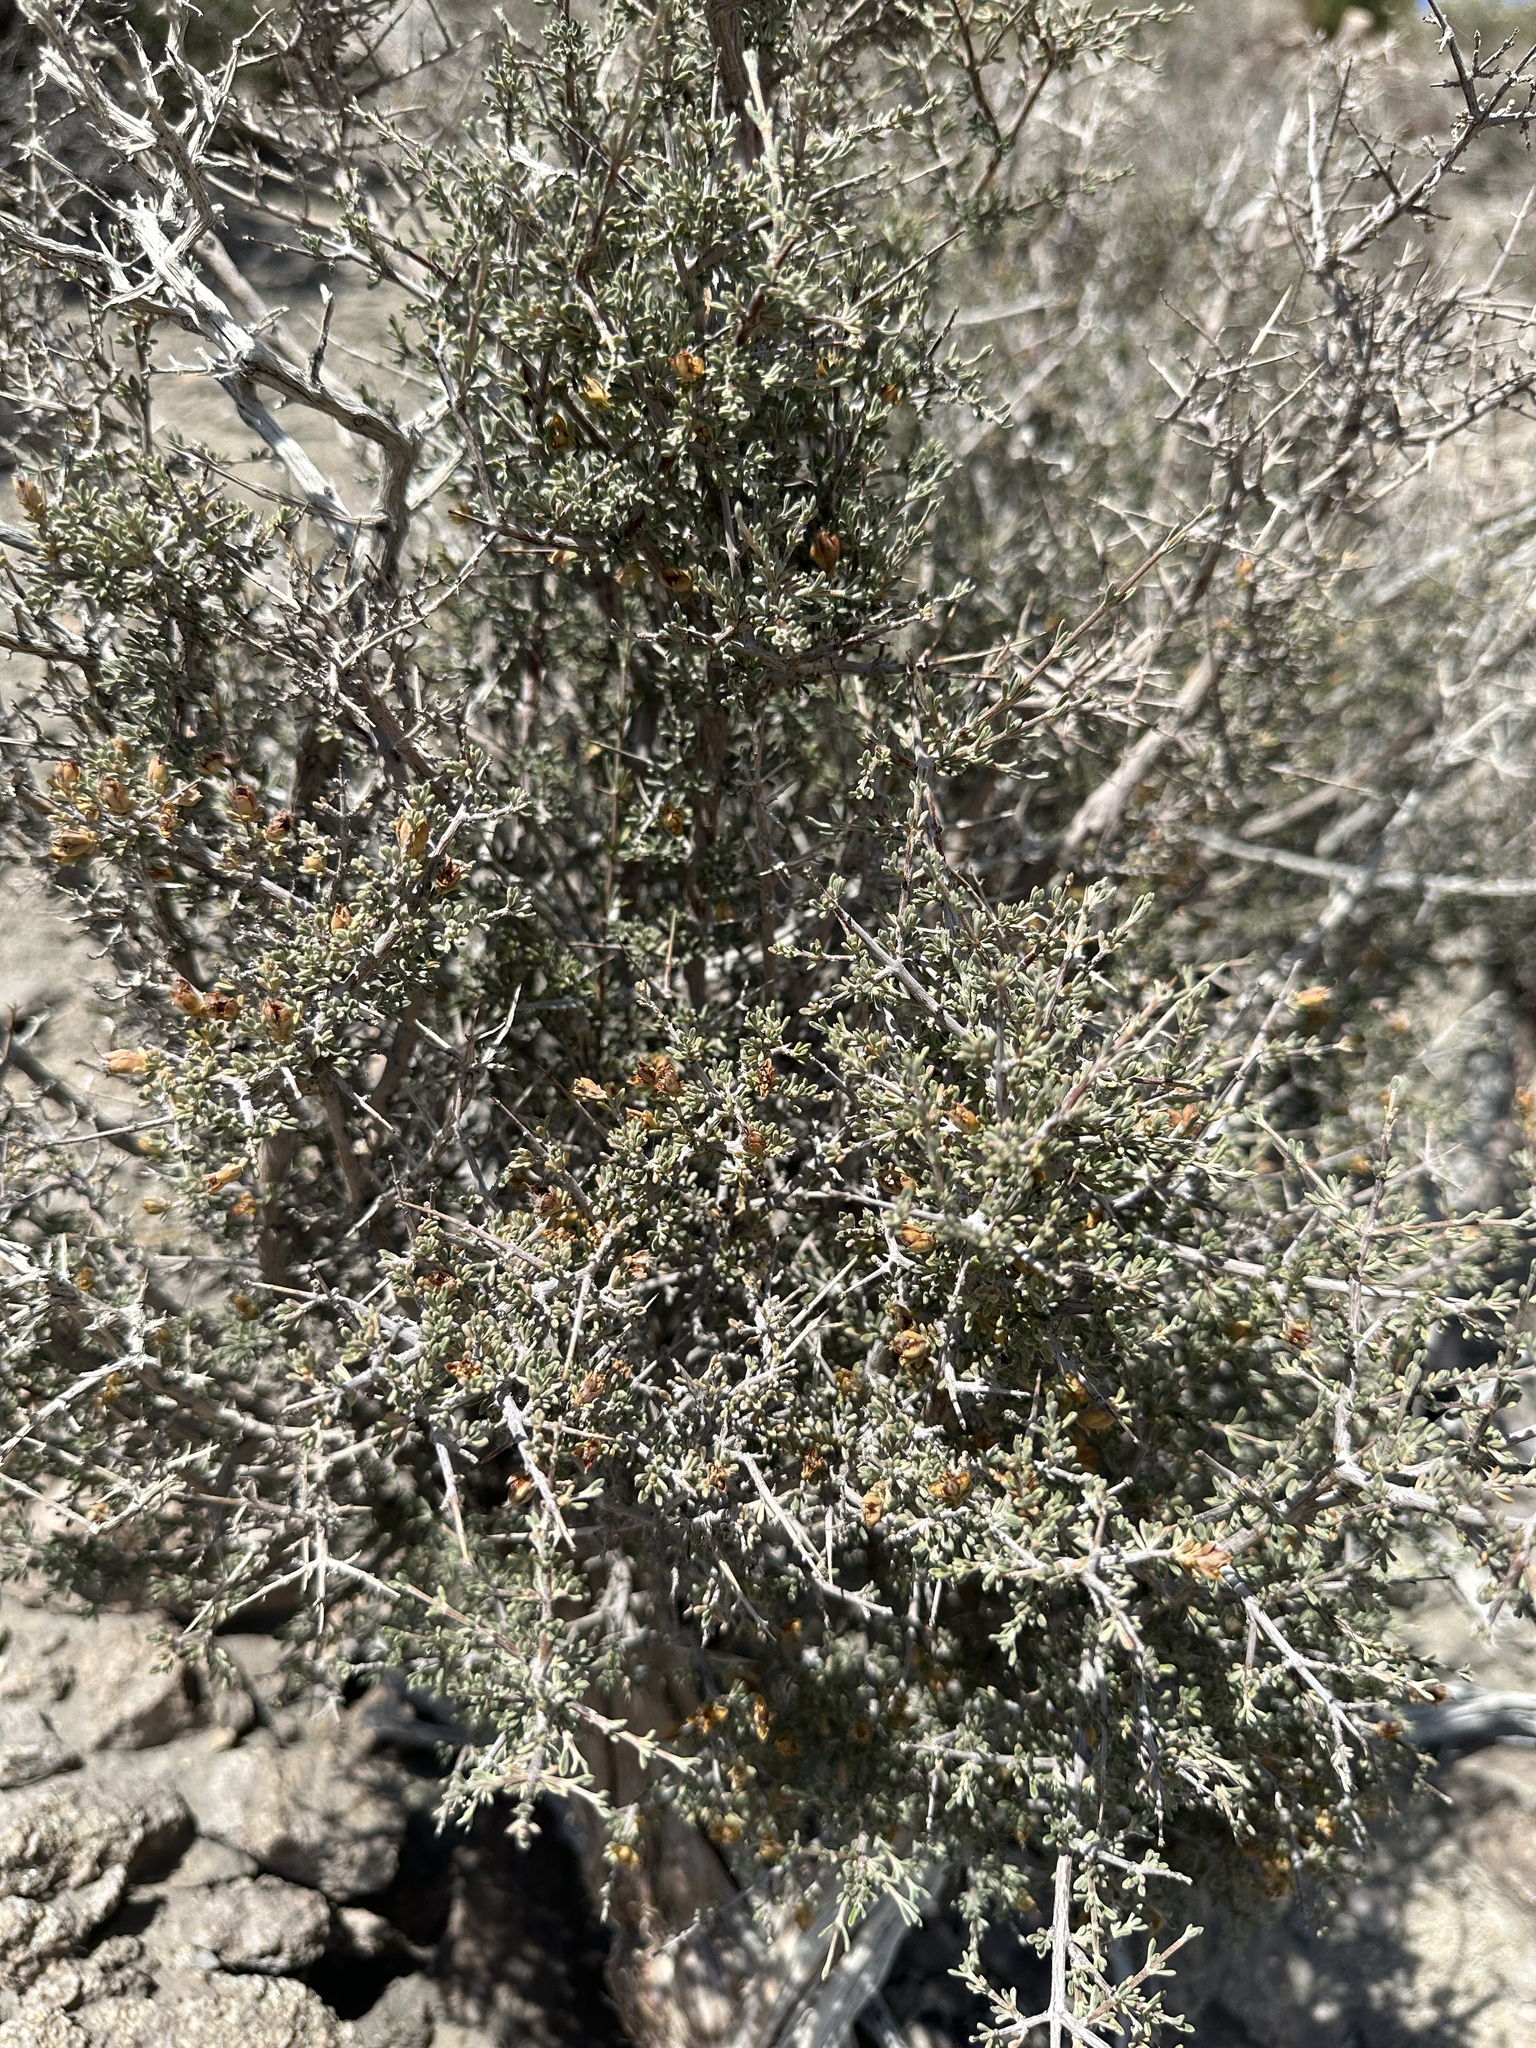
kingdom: Plantae
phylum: Tracheophyta
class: Magnoliopsida
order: Rosales
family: Rosaceae
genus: Coleogyne
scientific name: Coleogyne ramosissima
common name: Blackbrush
